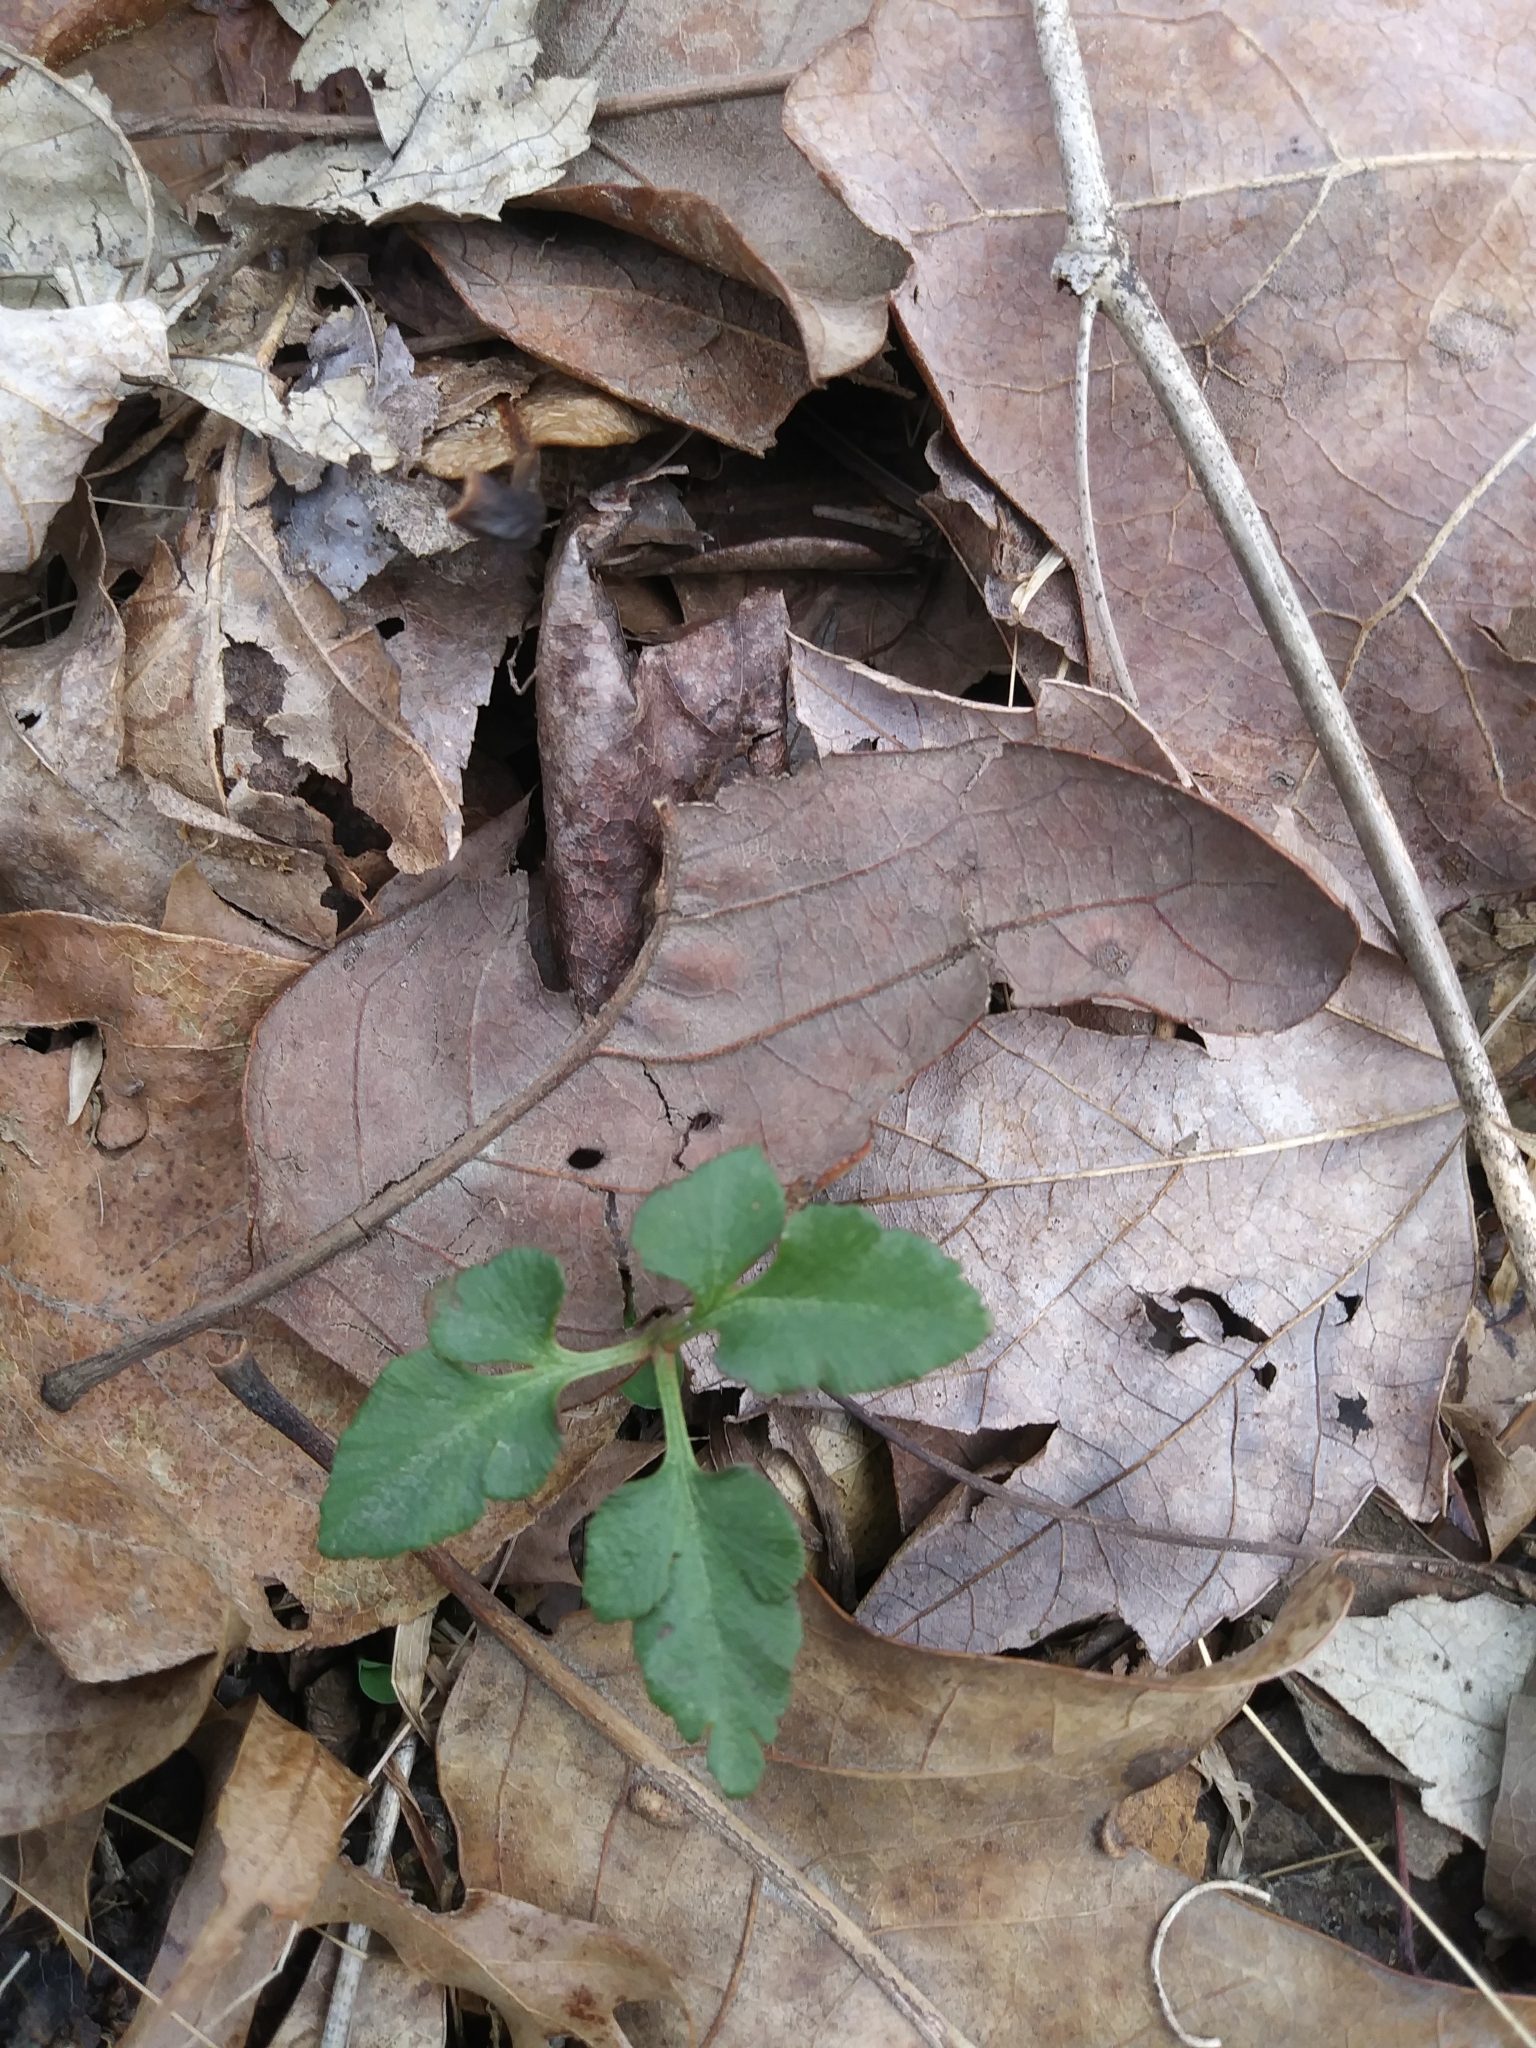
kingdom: Plantae
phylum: Tracheophyta
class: Polypodiopsida
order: Ophioglossales
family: Ophioglossaceae
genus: Sceptridium
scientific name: Sceptridium dissectum
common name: Cut-leaved grapefern
